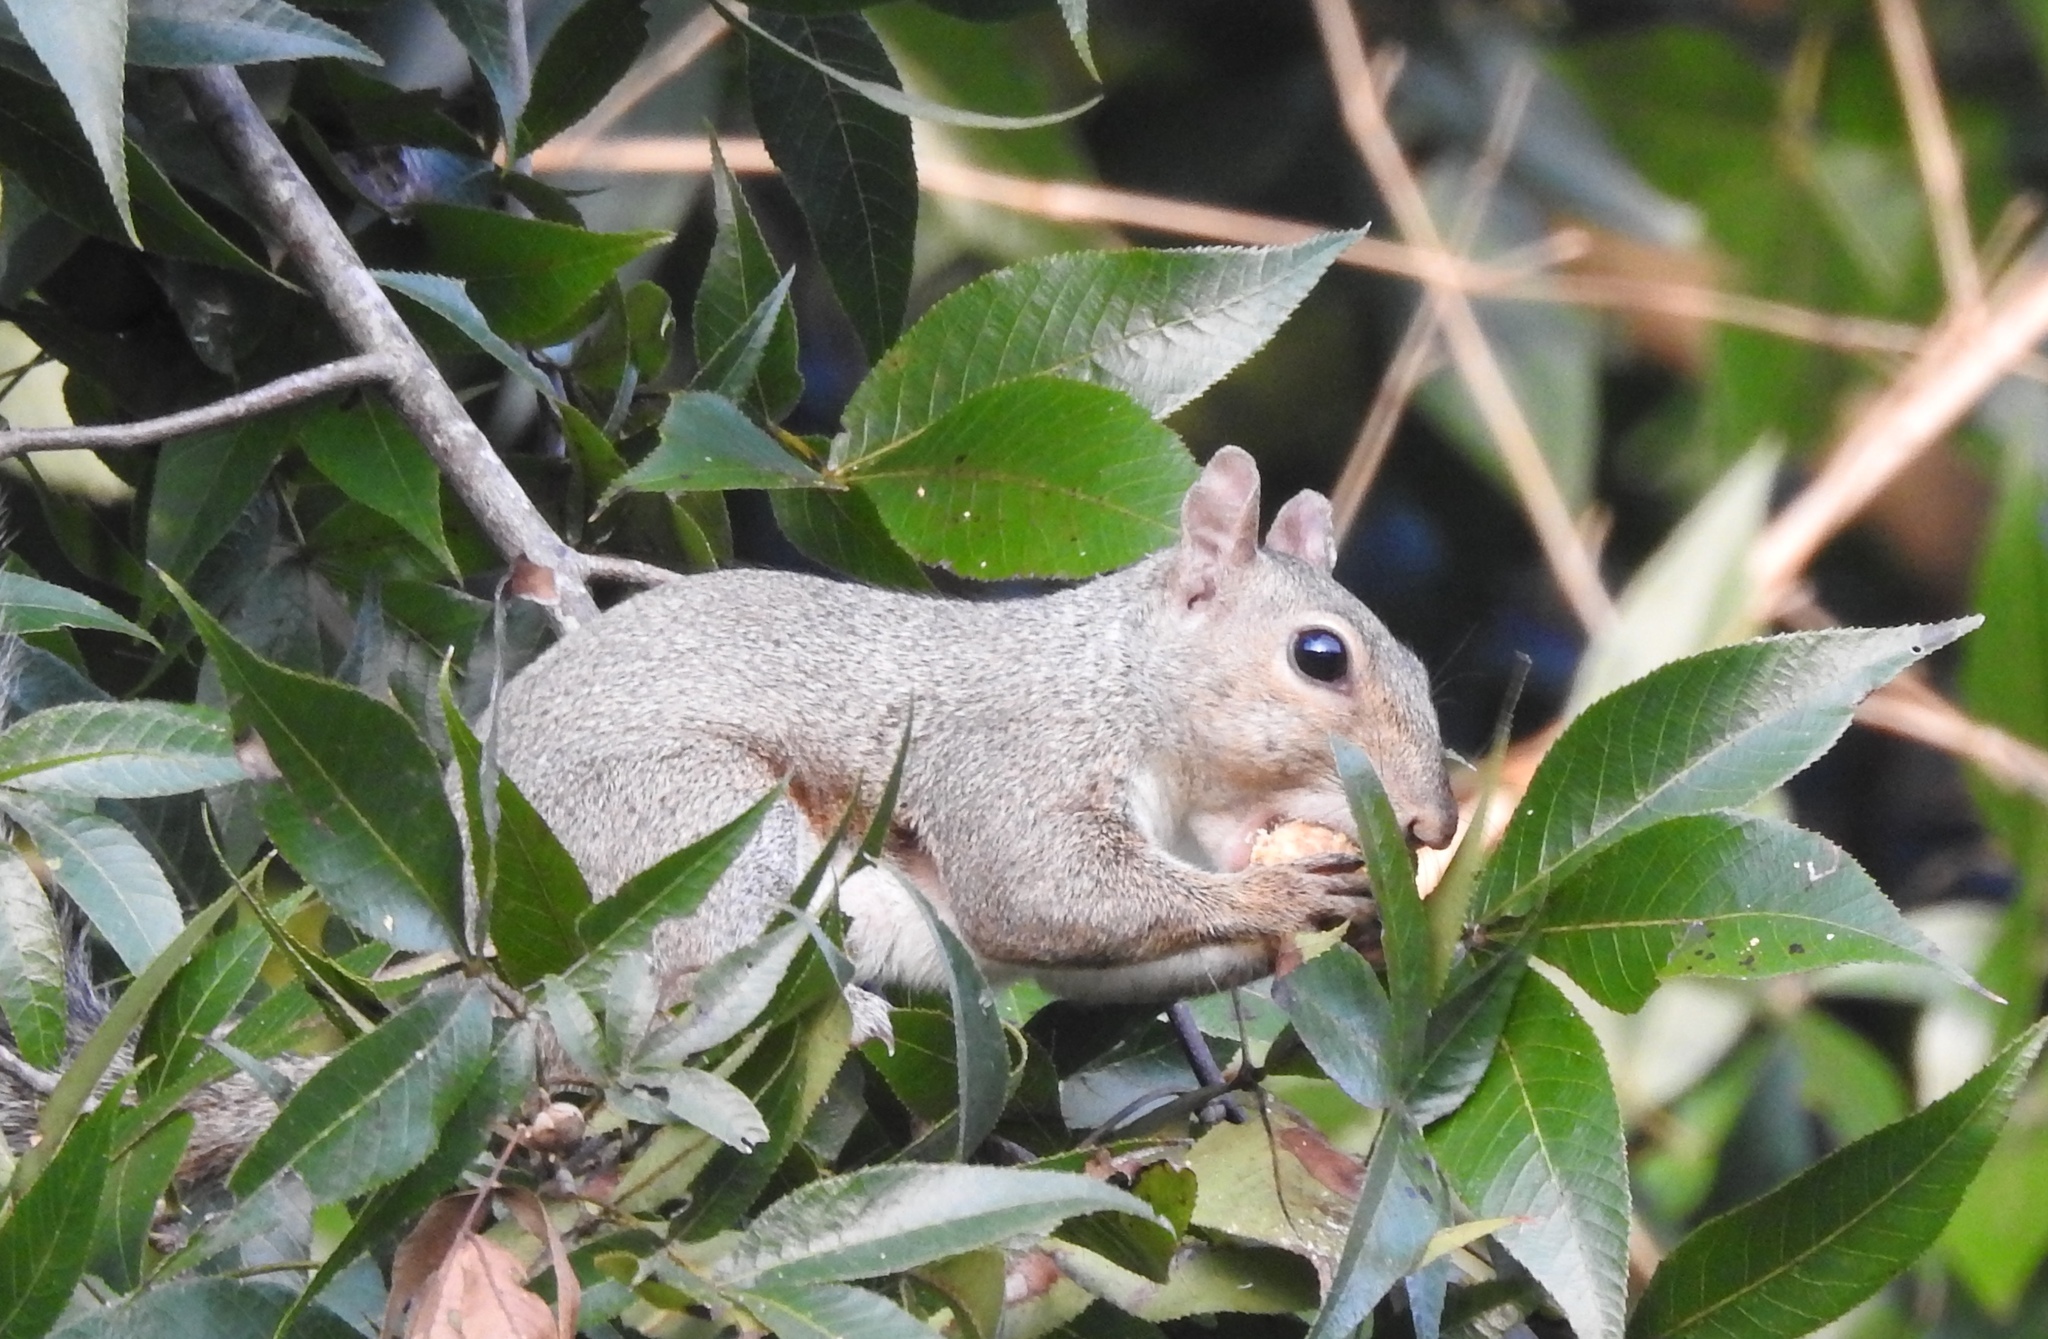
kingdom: Animalia
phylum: Chordata
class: Mammalia
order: Rodentia
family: Sciuridae
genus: Sciurus
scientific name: Sciurus carolinensis
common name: Eastern gray squirrel
